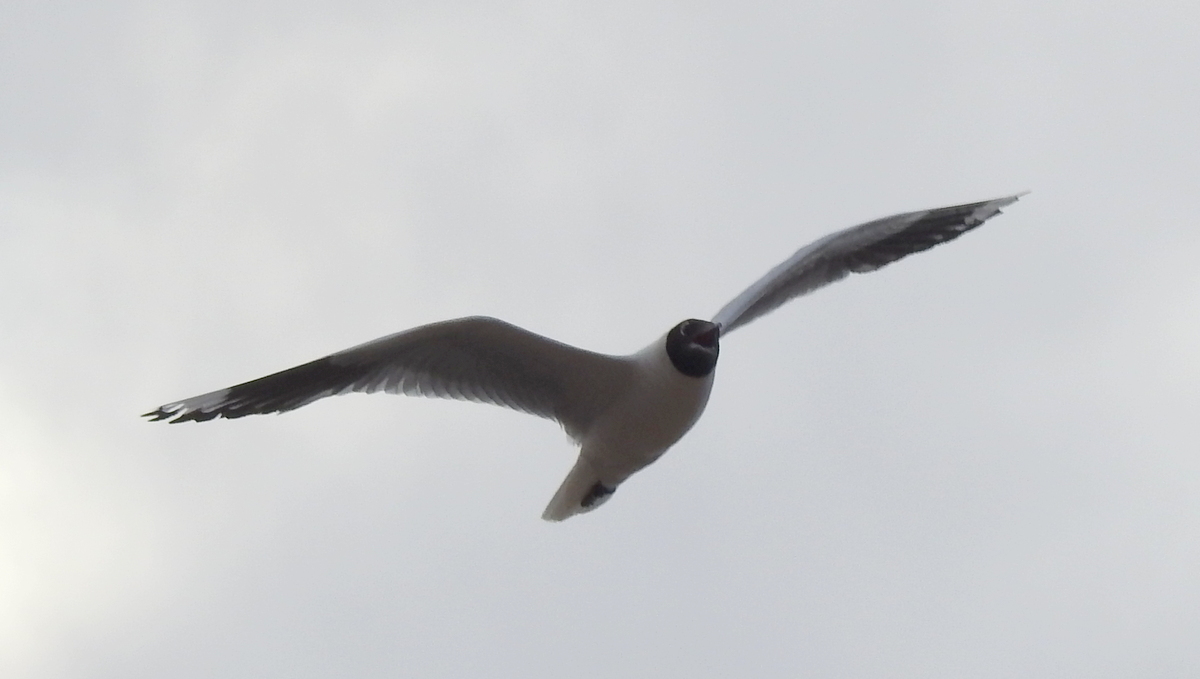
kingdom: Animalia
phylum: Chordata
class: Aves
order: Charadriiformes
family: Laridae
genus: Chroicocephalus
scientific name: Chroicocephalus serranus
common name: Andean gull
